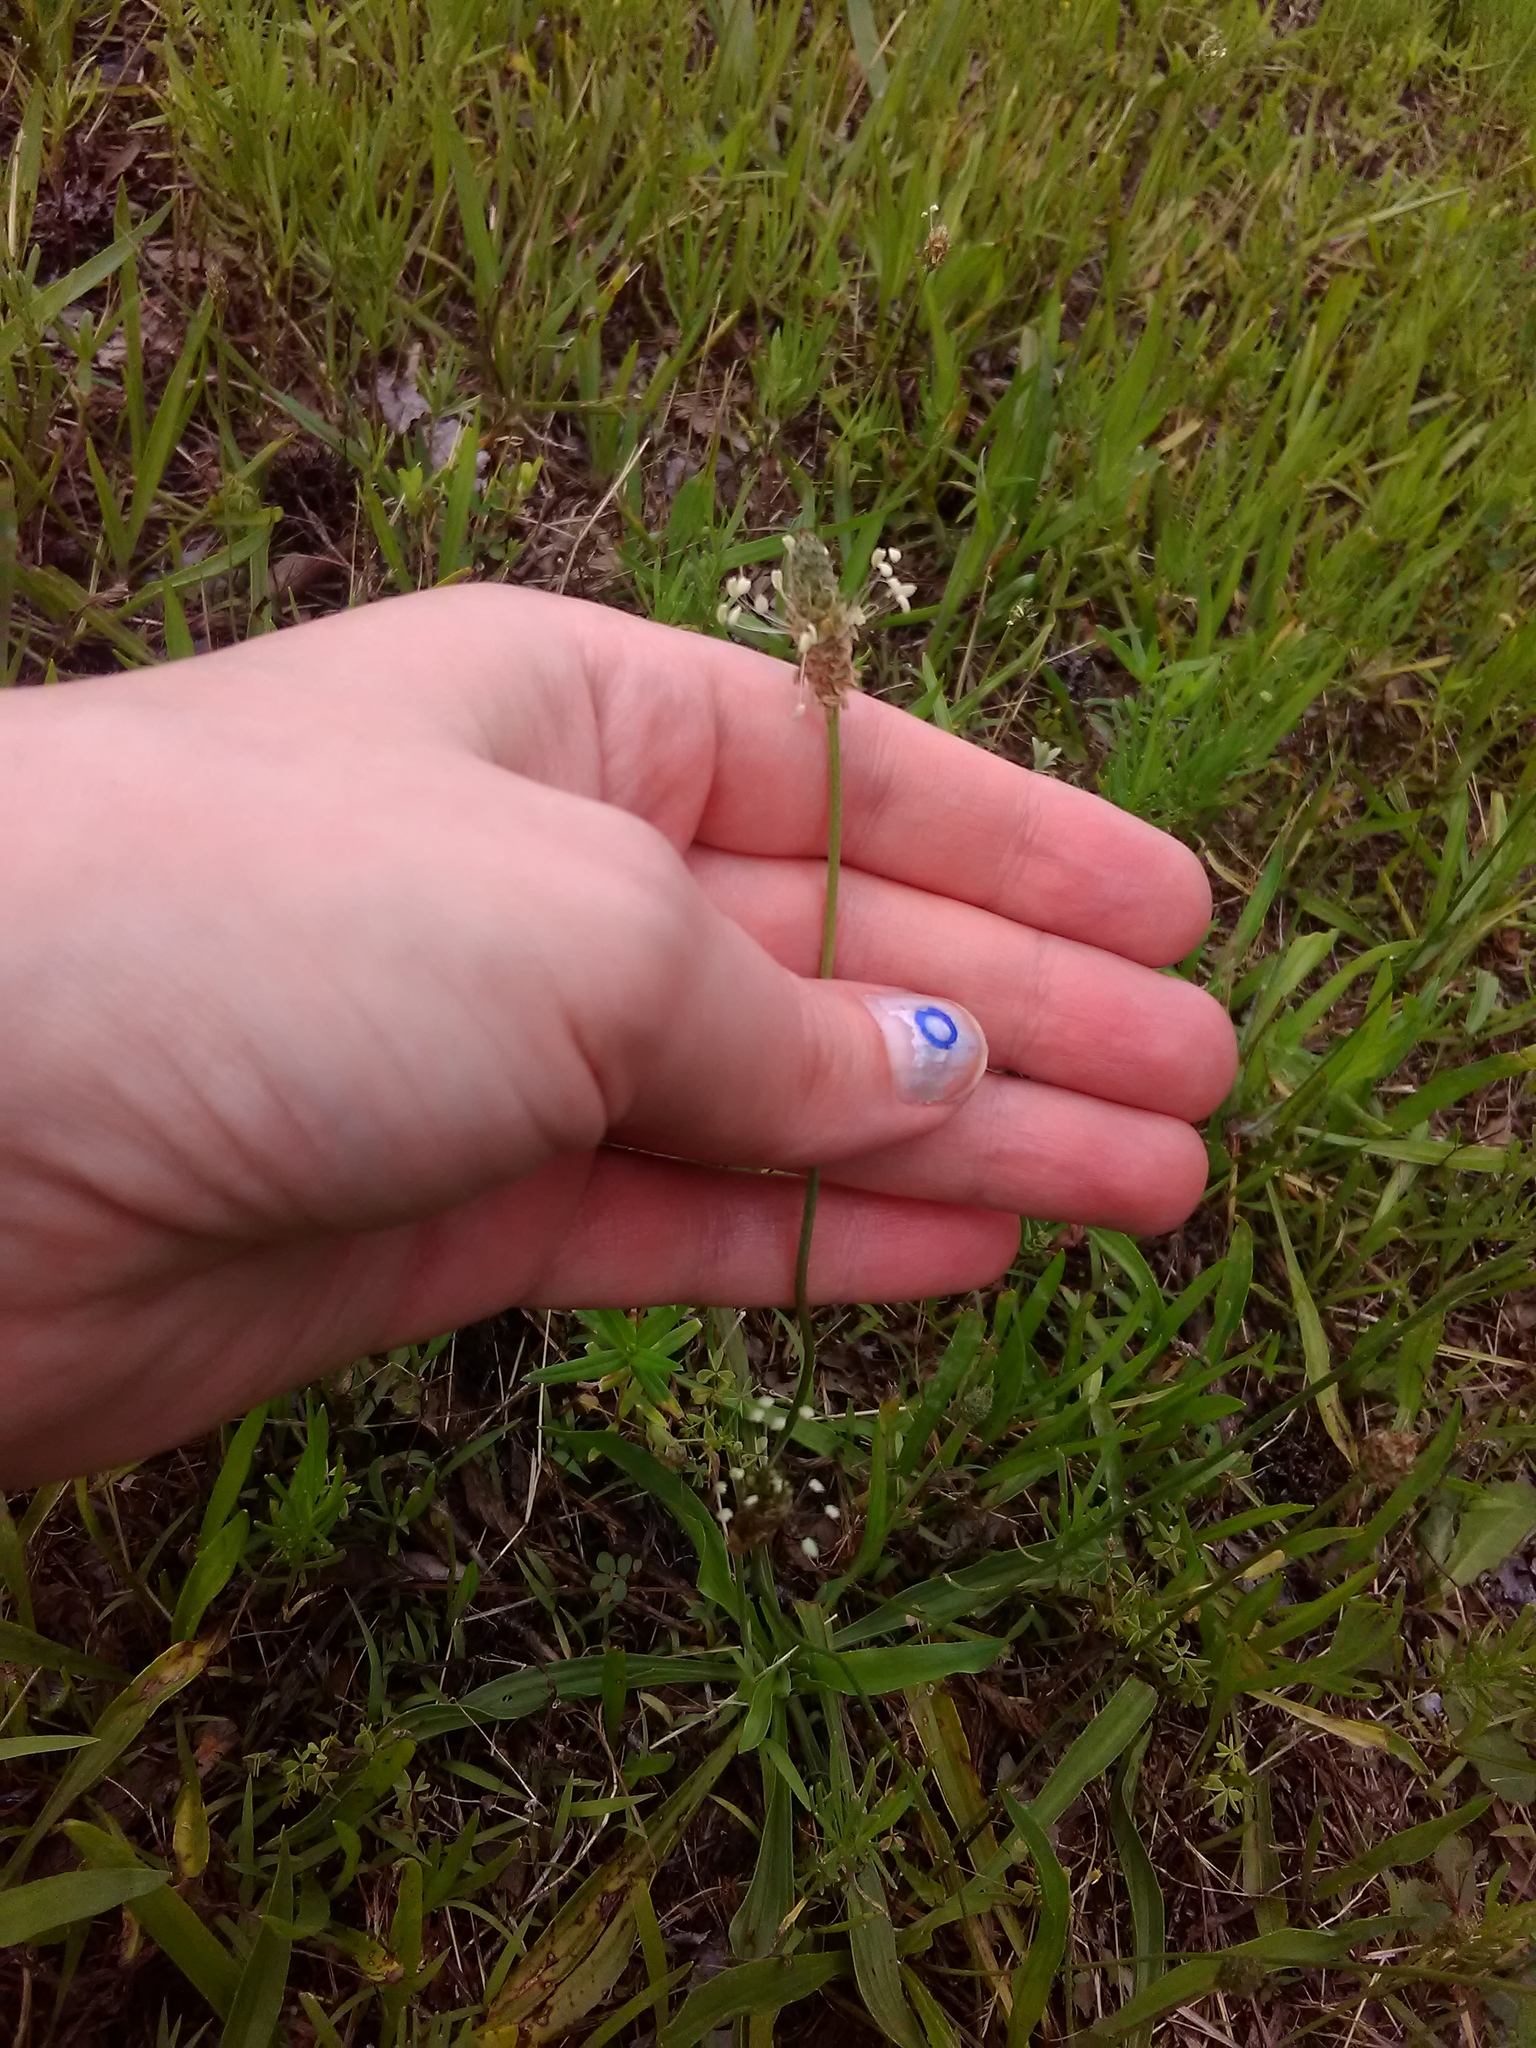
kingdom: Plantae
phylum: Tracheophyta
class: Magnoliopsida
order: Lamiales
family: Plantaginaceae
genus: Plantago
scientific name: Plantago lanceolata
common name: Ribwort plantain
